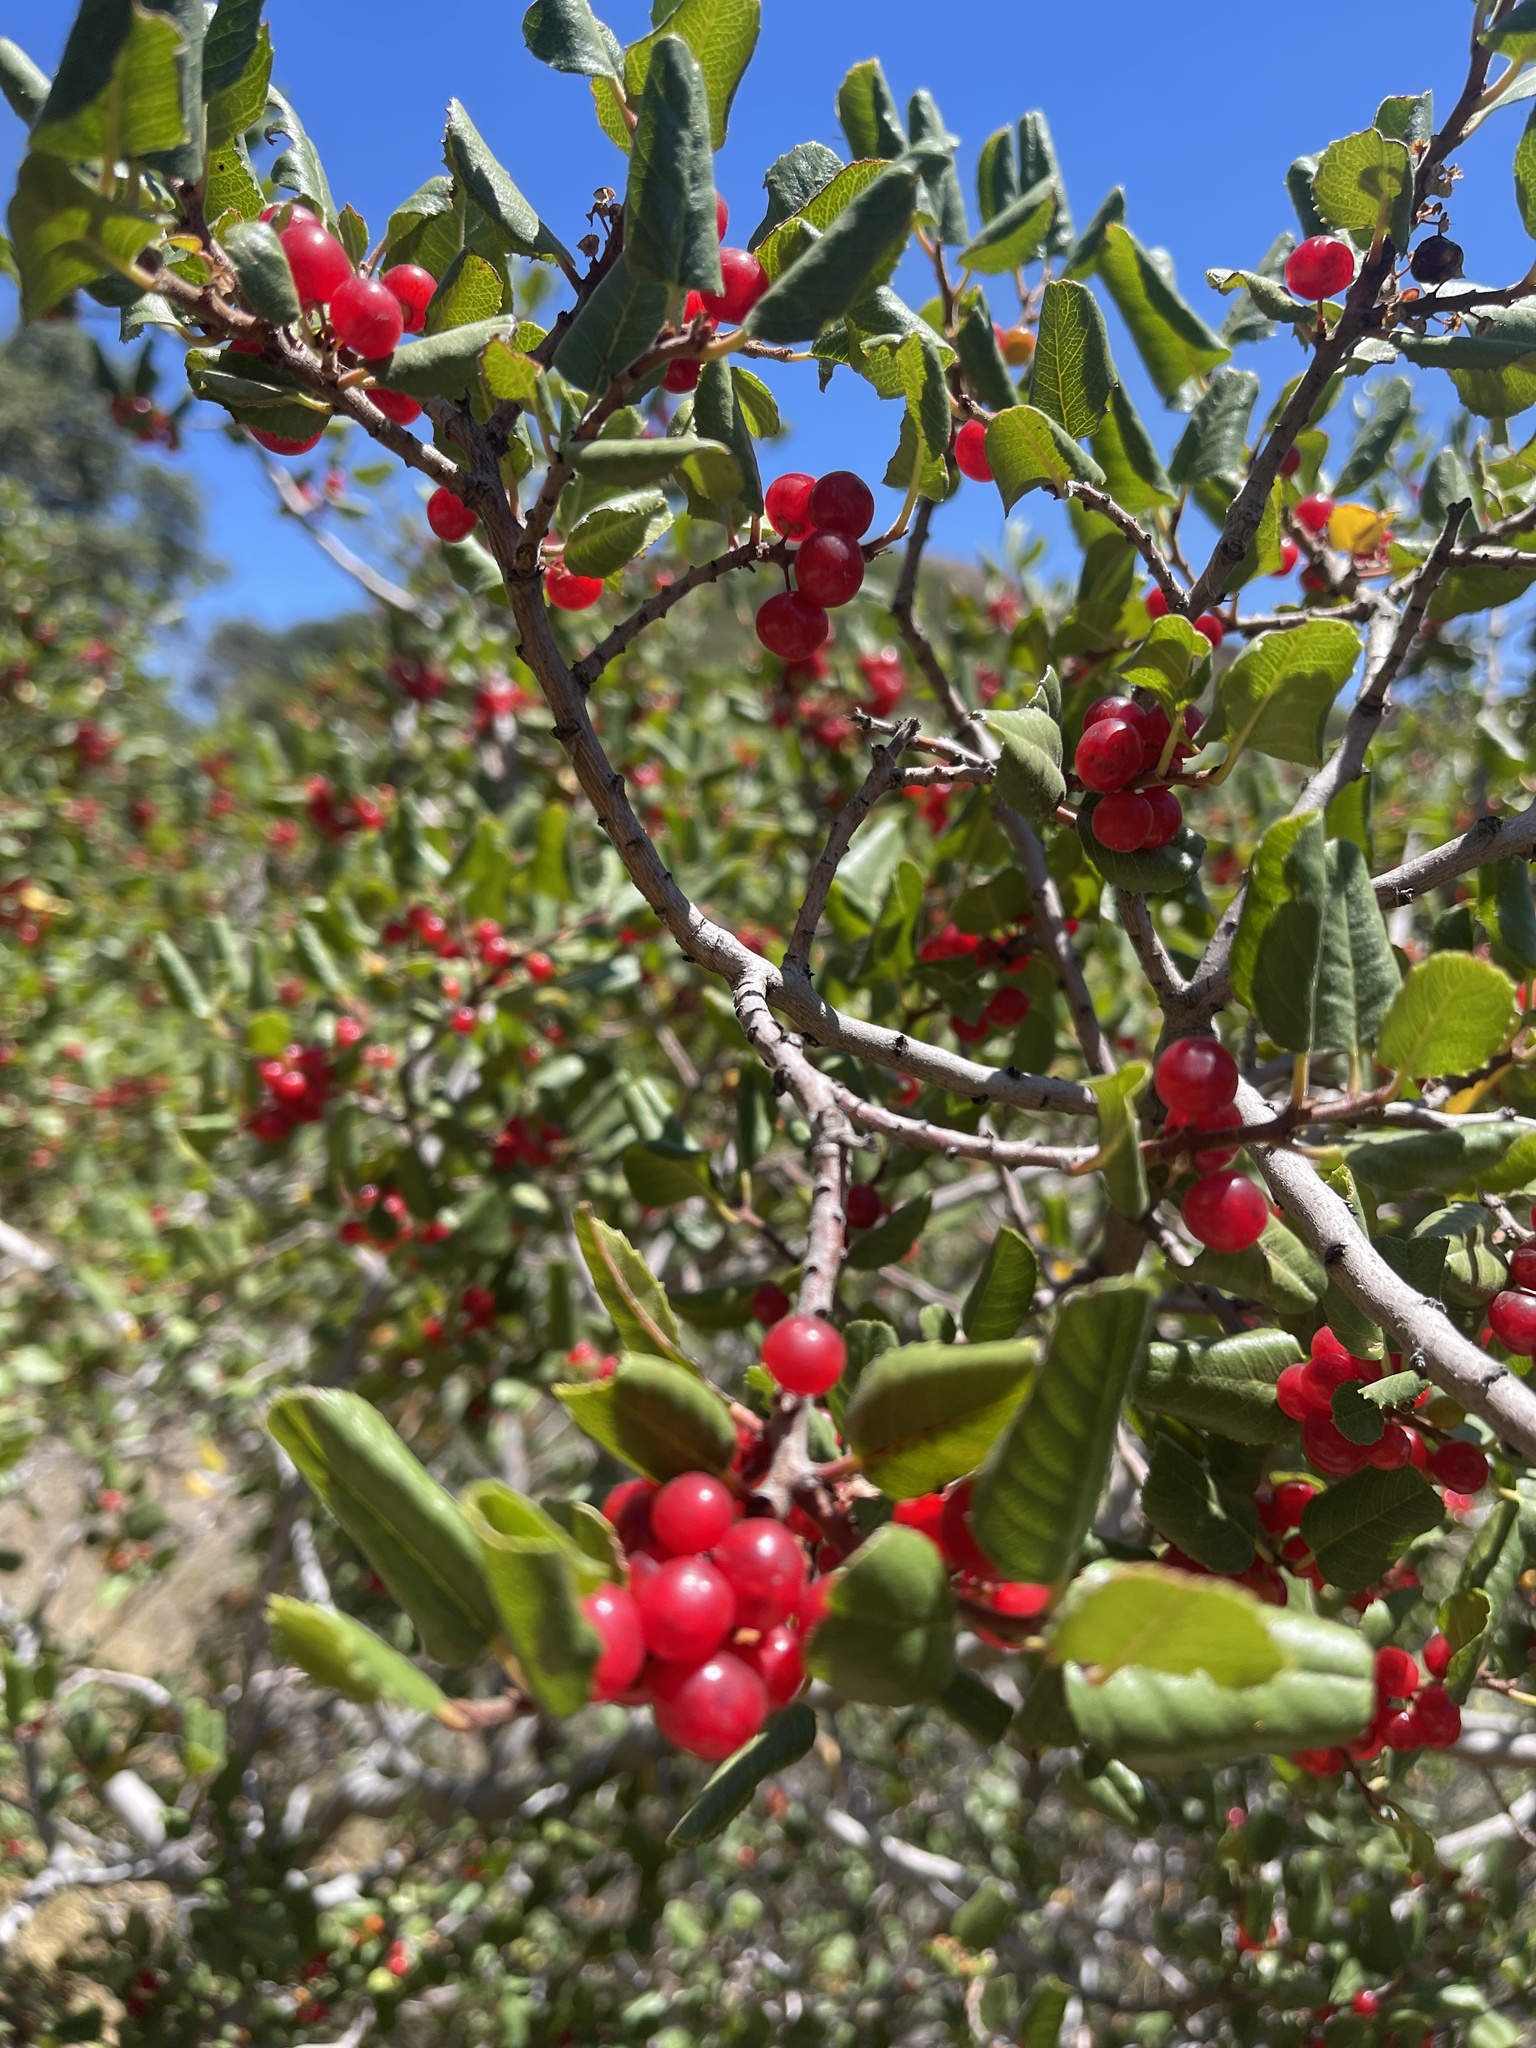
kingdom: Plantae
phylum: Tracheophyta
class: Magnoliopsida
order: Rosales
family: Rhamnaceae
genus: Endotropis
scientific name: Endotropis crocea
